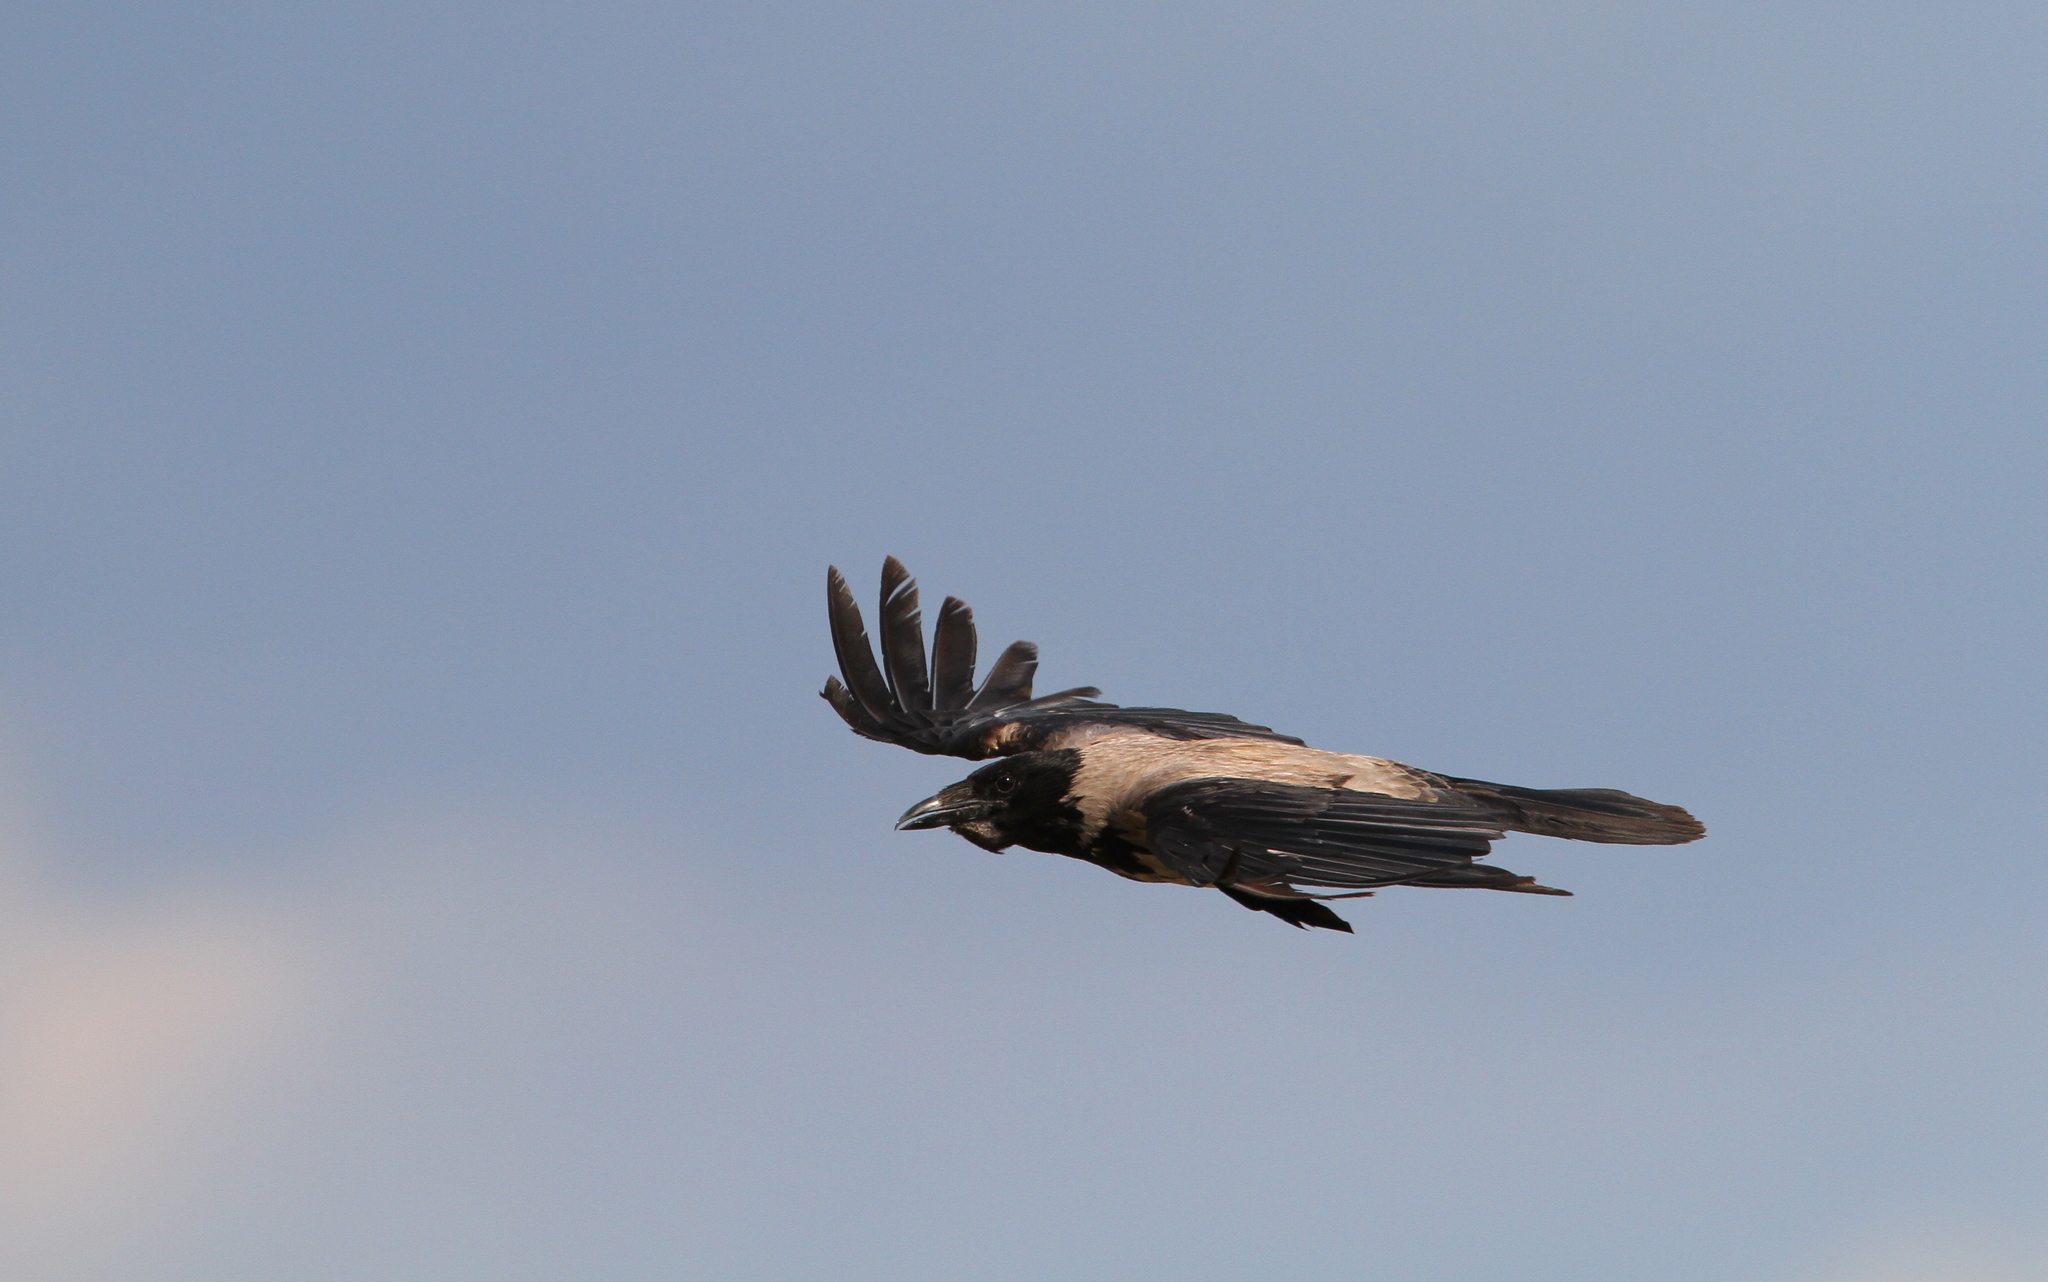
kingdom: Animalia
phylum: Chordata
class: Aves
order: Passeriformes
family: Corvidae
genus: Corvus
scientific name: Corvus cornix
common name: Hooded crow
